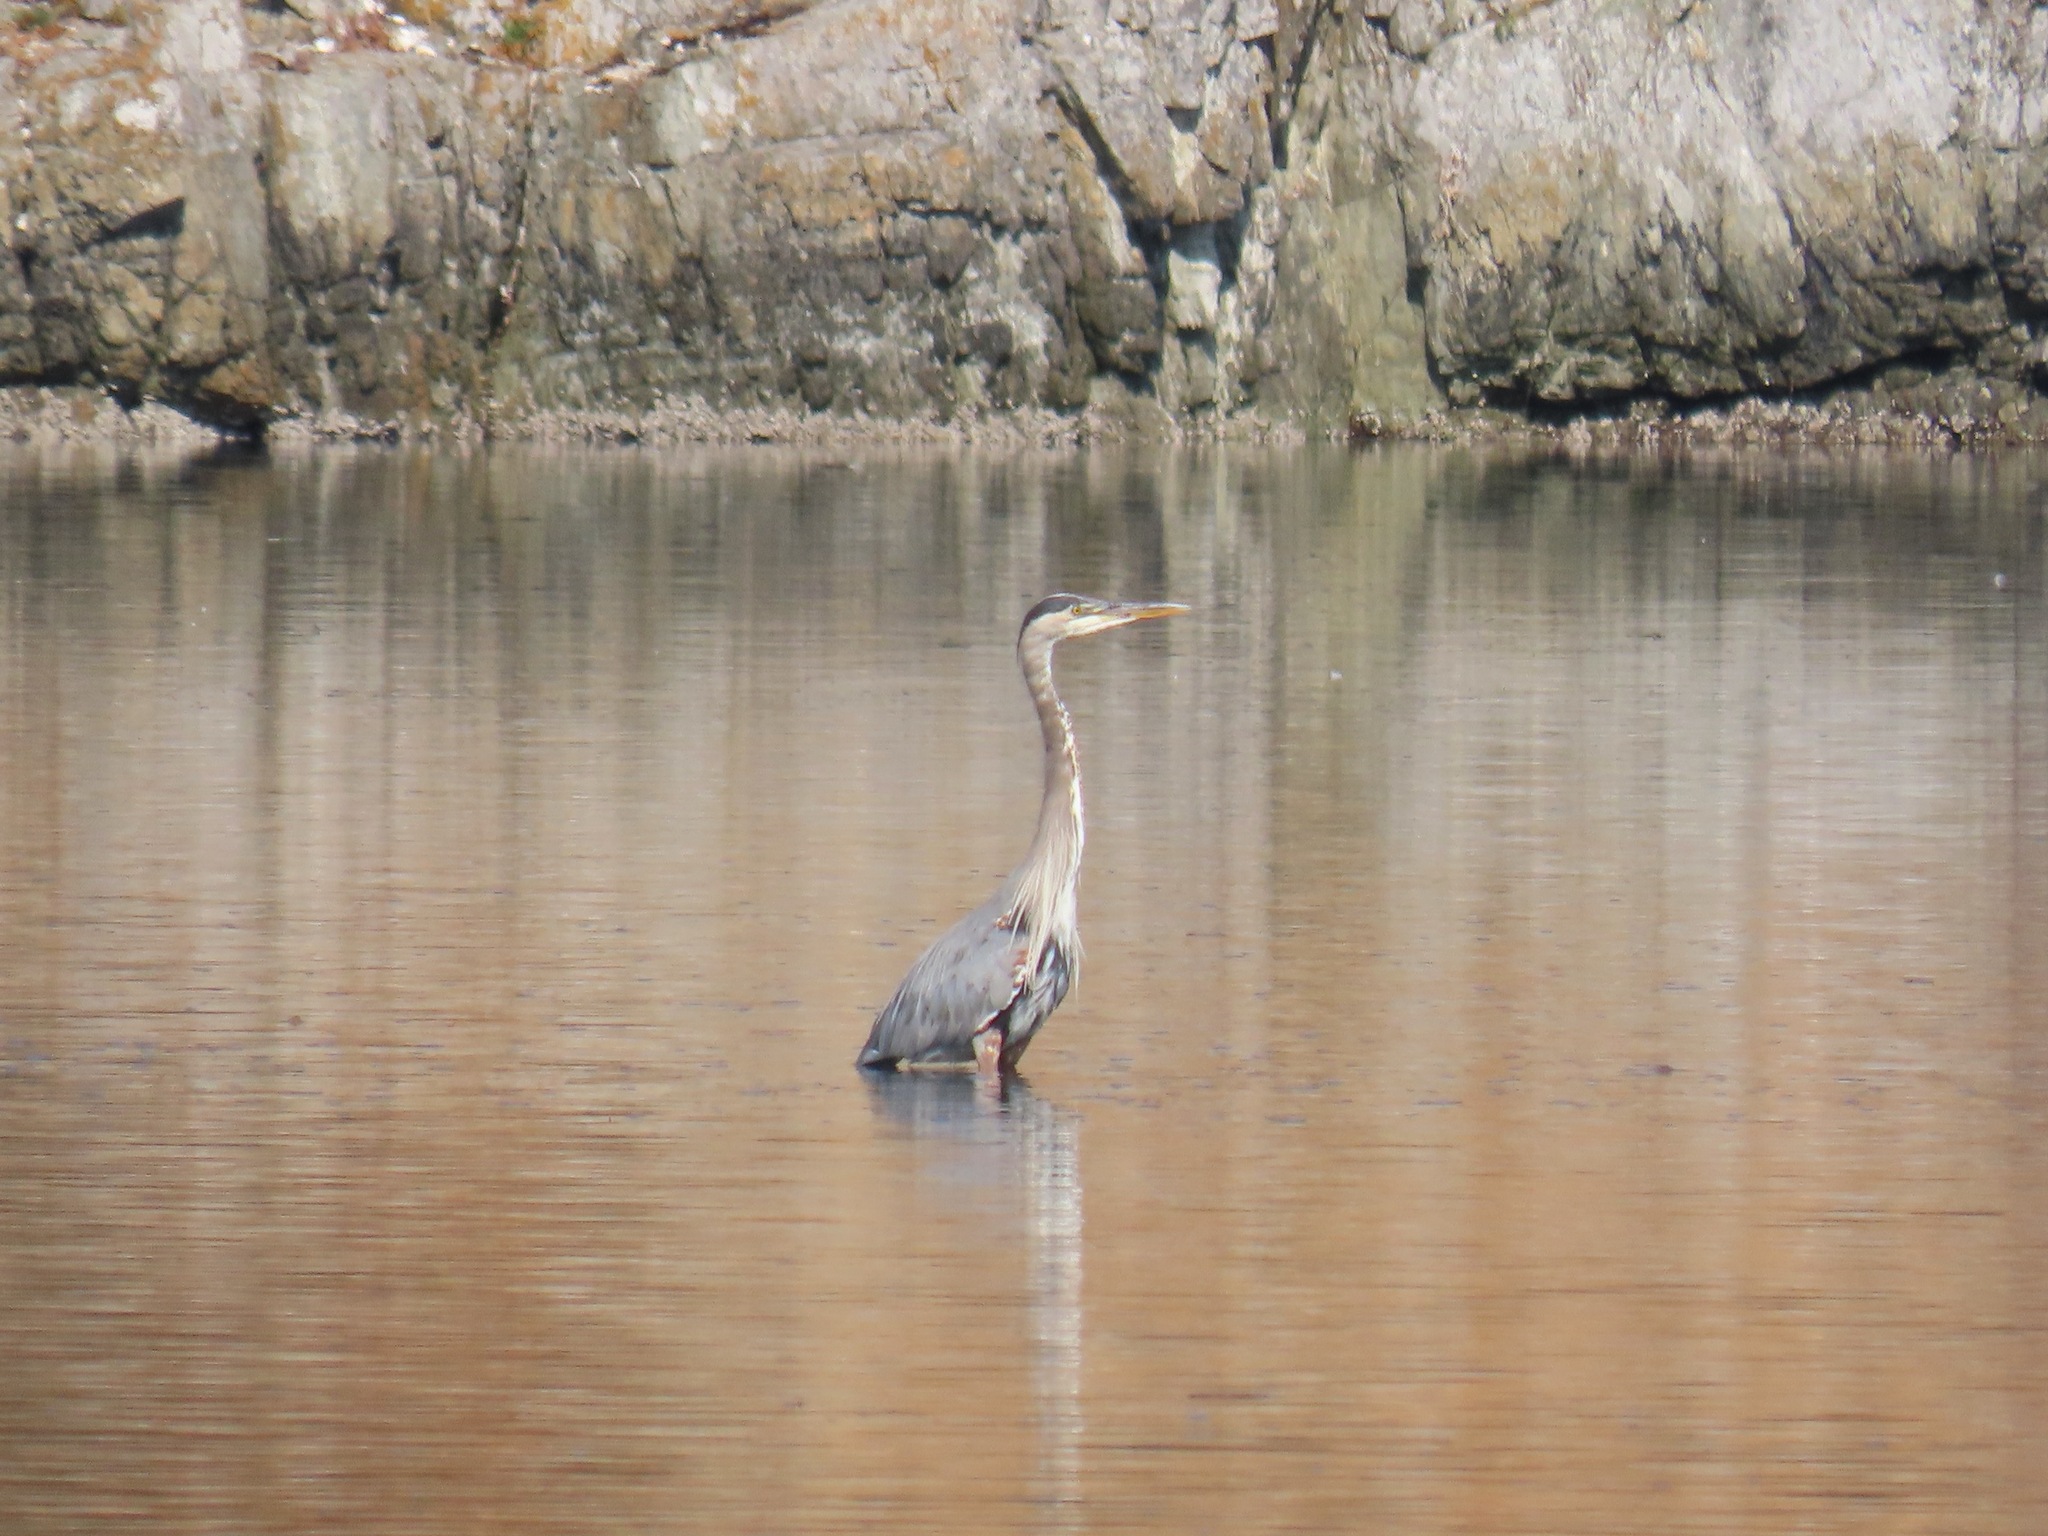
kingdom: Animalia
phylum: Chordata
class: Aves
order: Pelecaniformes
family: Ardeidae
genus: Ardea
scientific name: Ardea herodias
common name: Great blue heron
